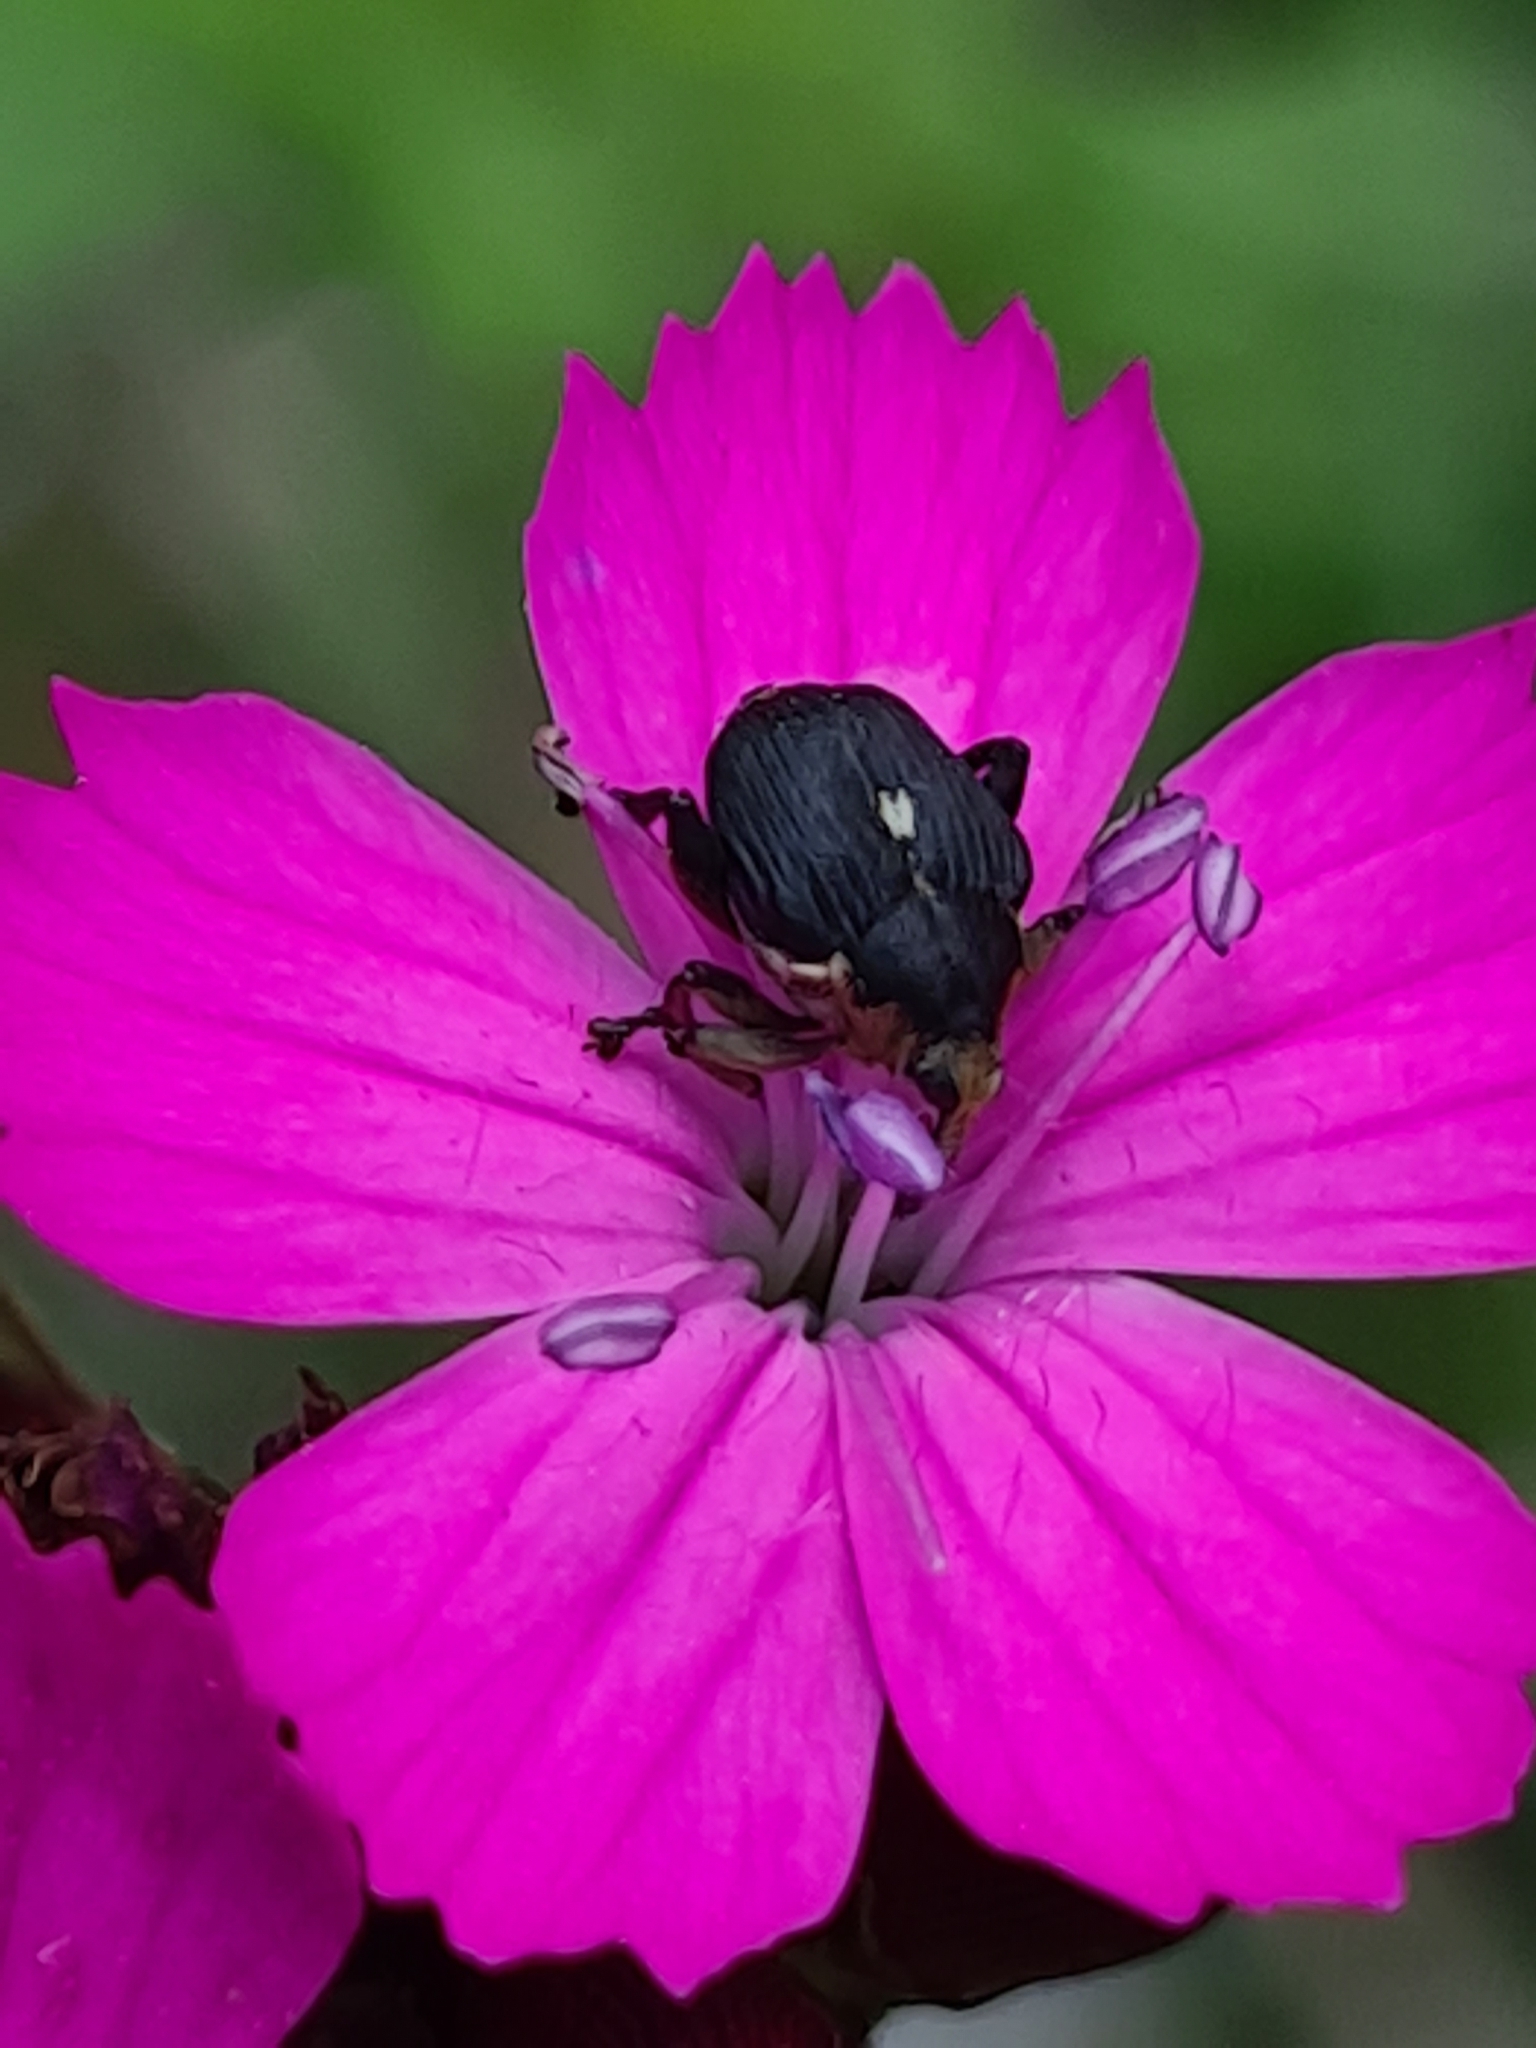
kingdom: Animalia
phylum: Arthropoda
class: Insecta
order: Coleoptera
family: Curculionidae
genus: Mononychus
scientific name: Mononychus punctumalbum
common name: Iris weevil
